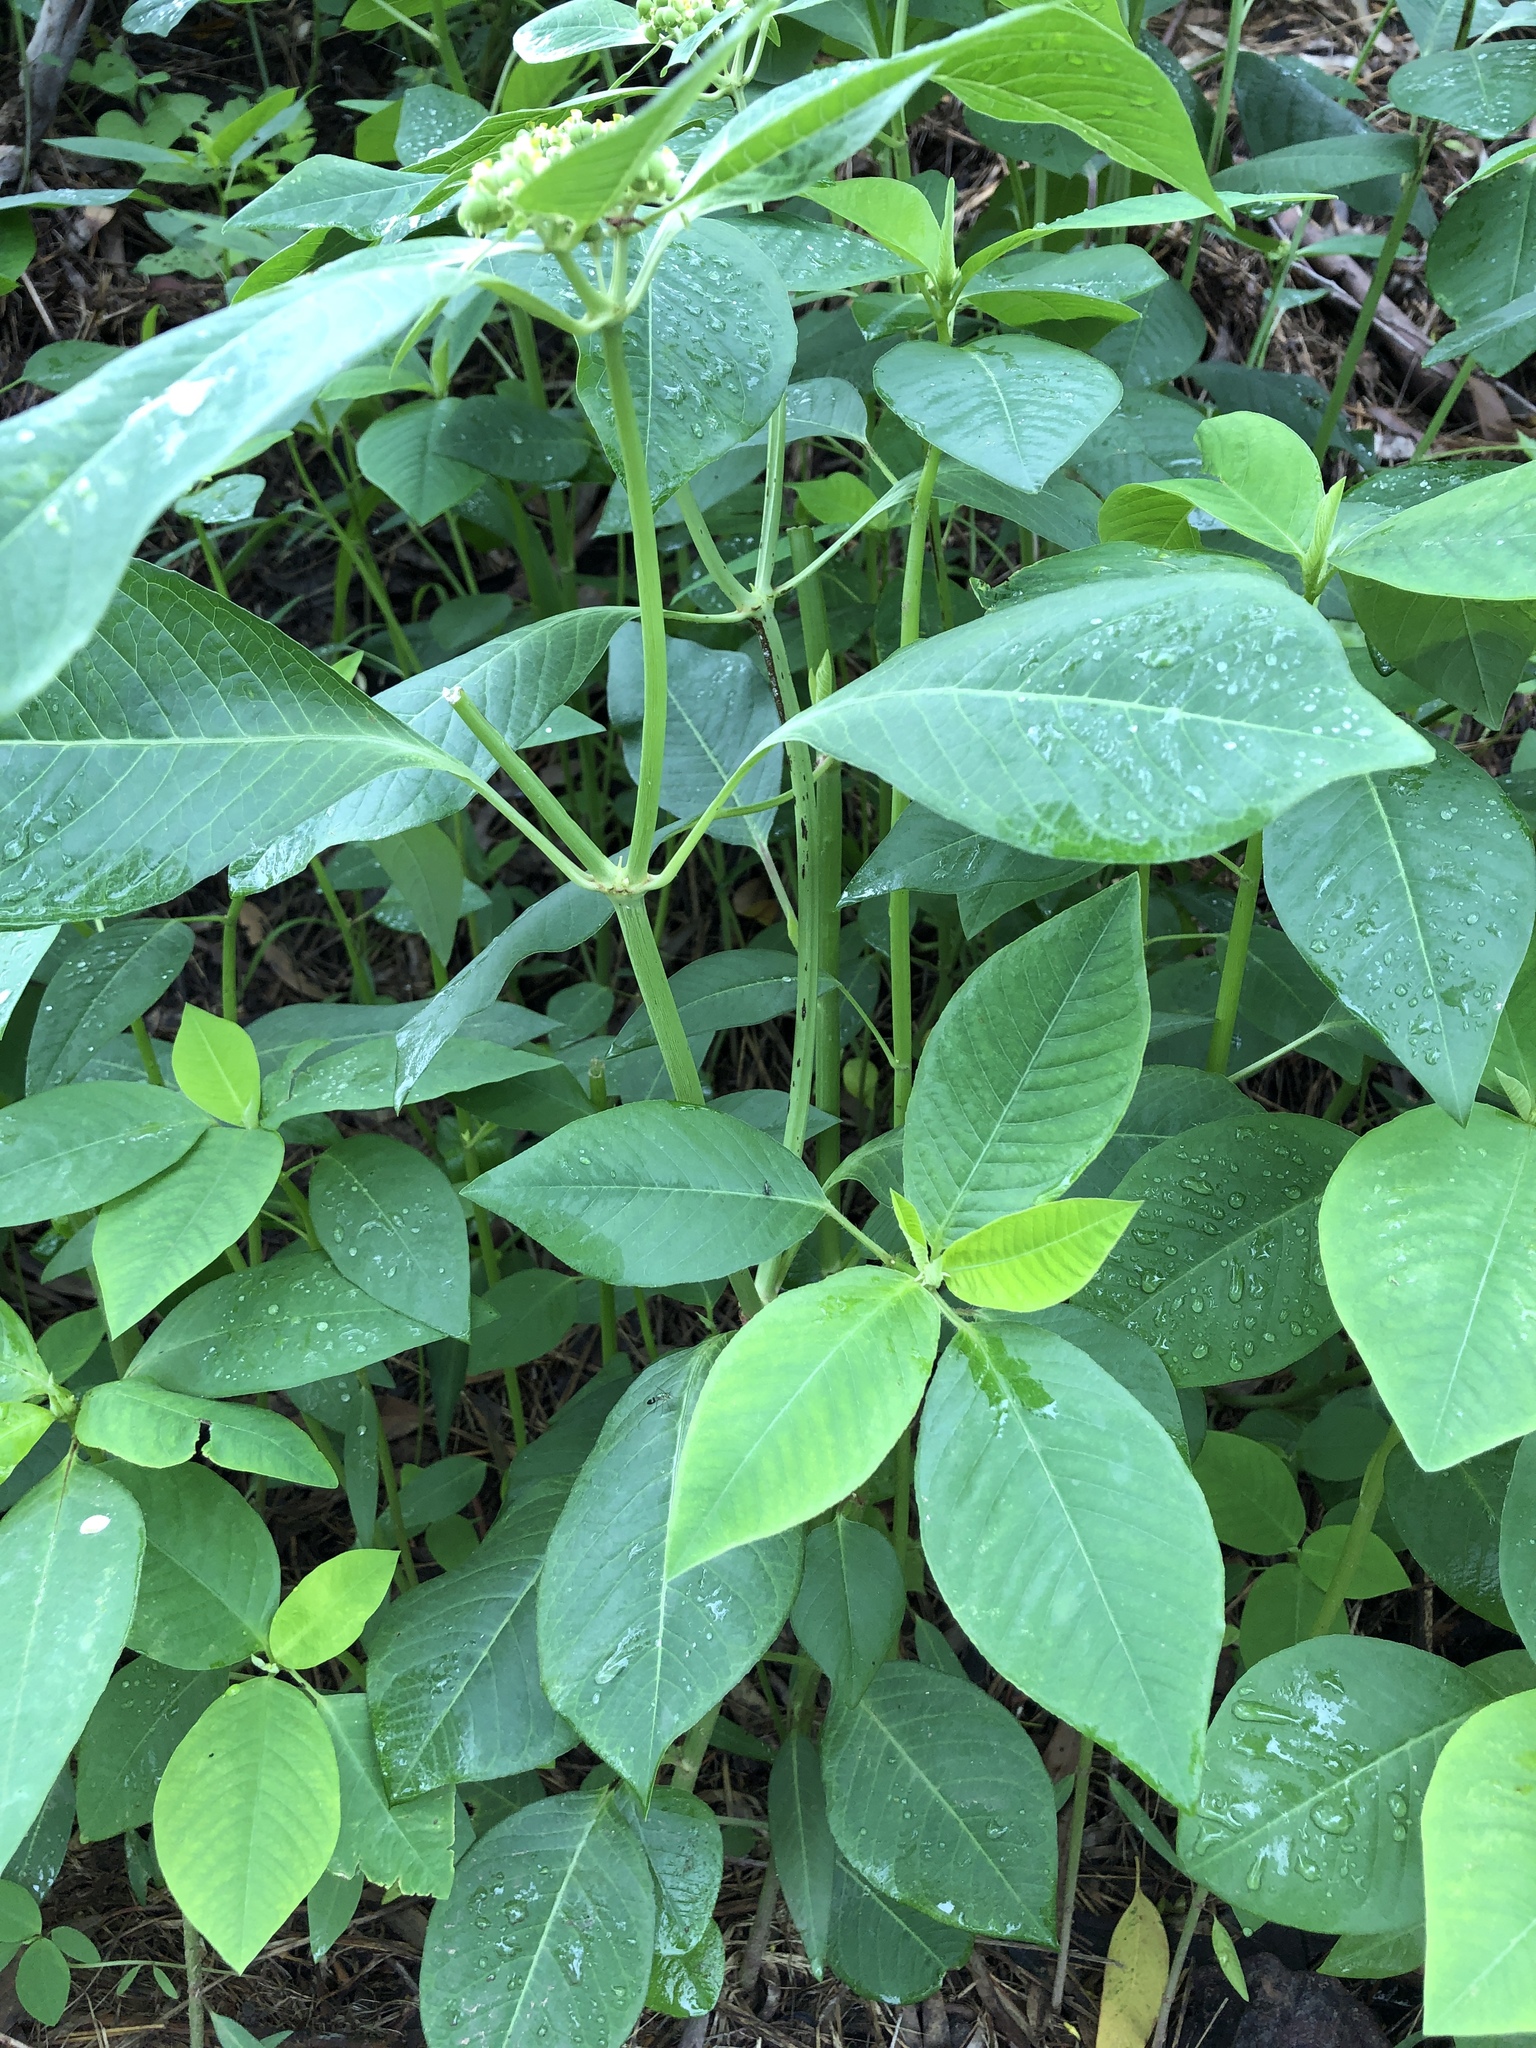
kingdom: Plantae
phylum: Tracheophyta
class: Magnoliopsida
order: Malpighiales
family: Euphorbiaceae
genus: Euphorbia
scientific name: Euphorbia heterophylla
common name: Mexican fireplant
